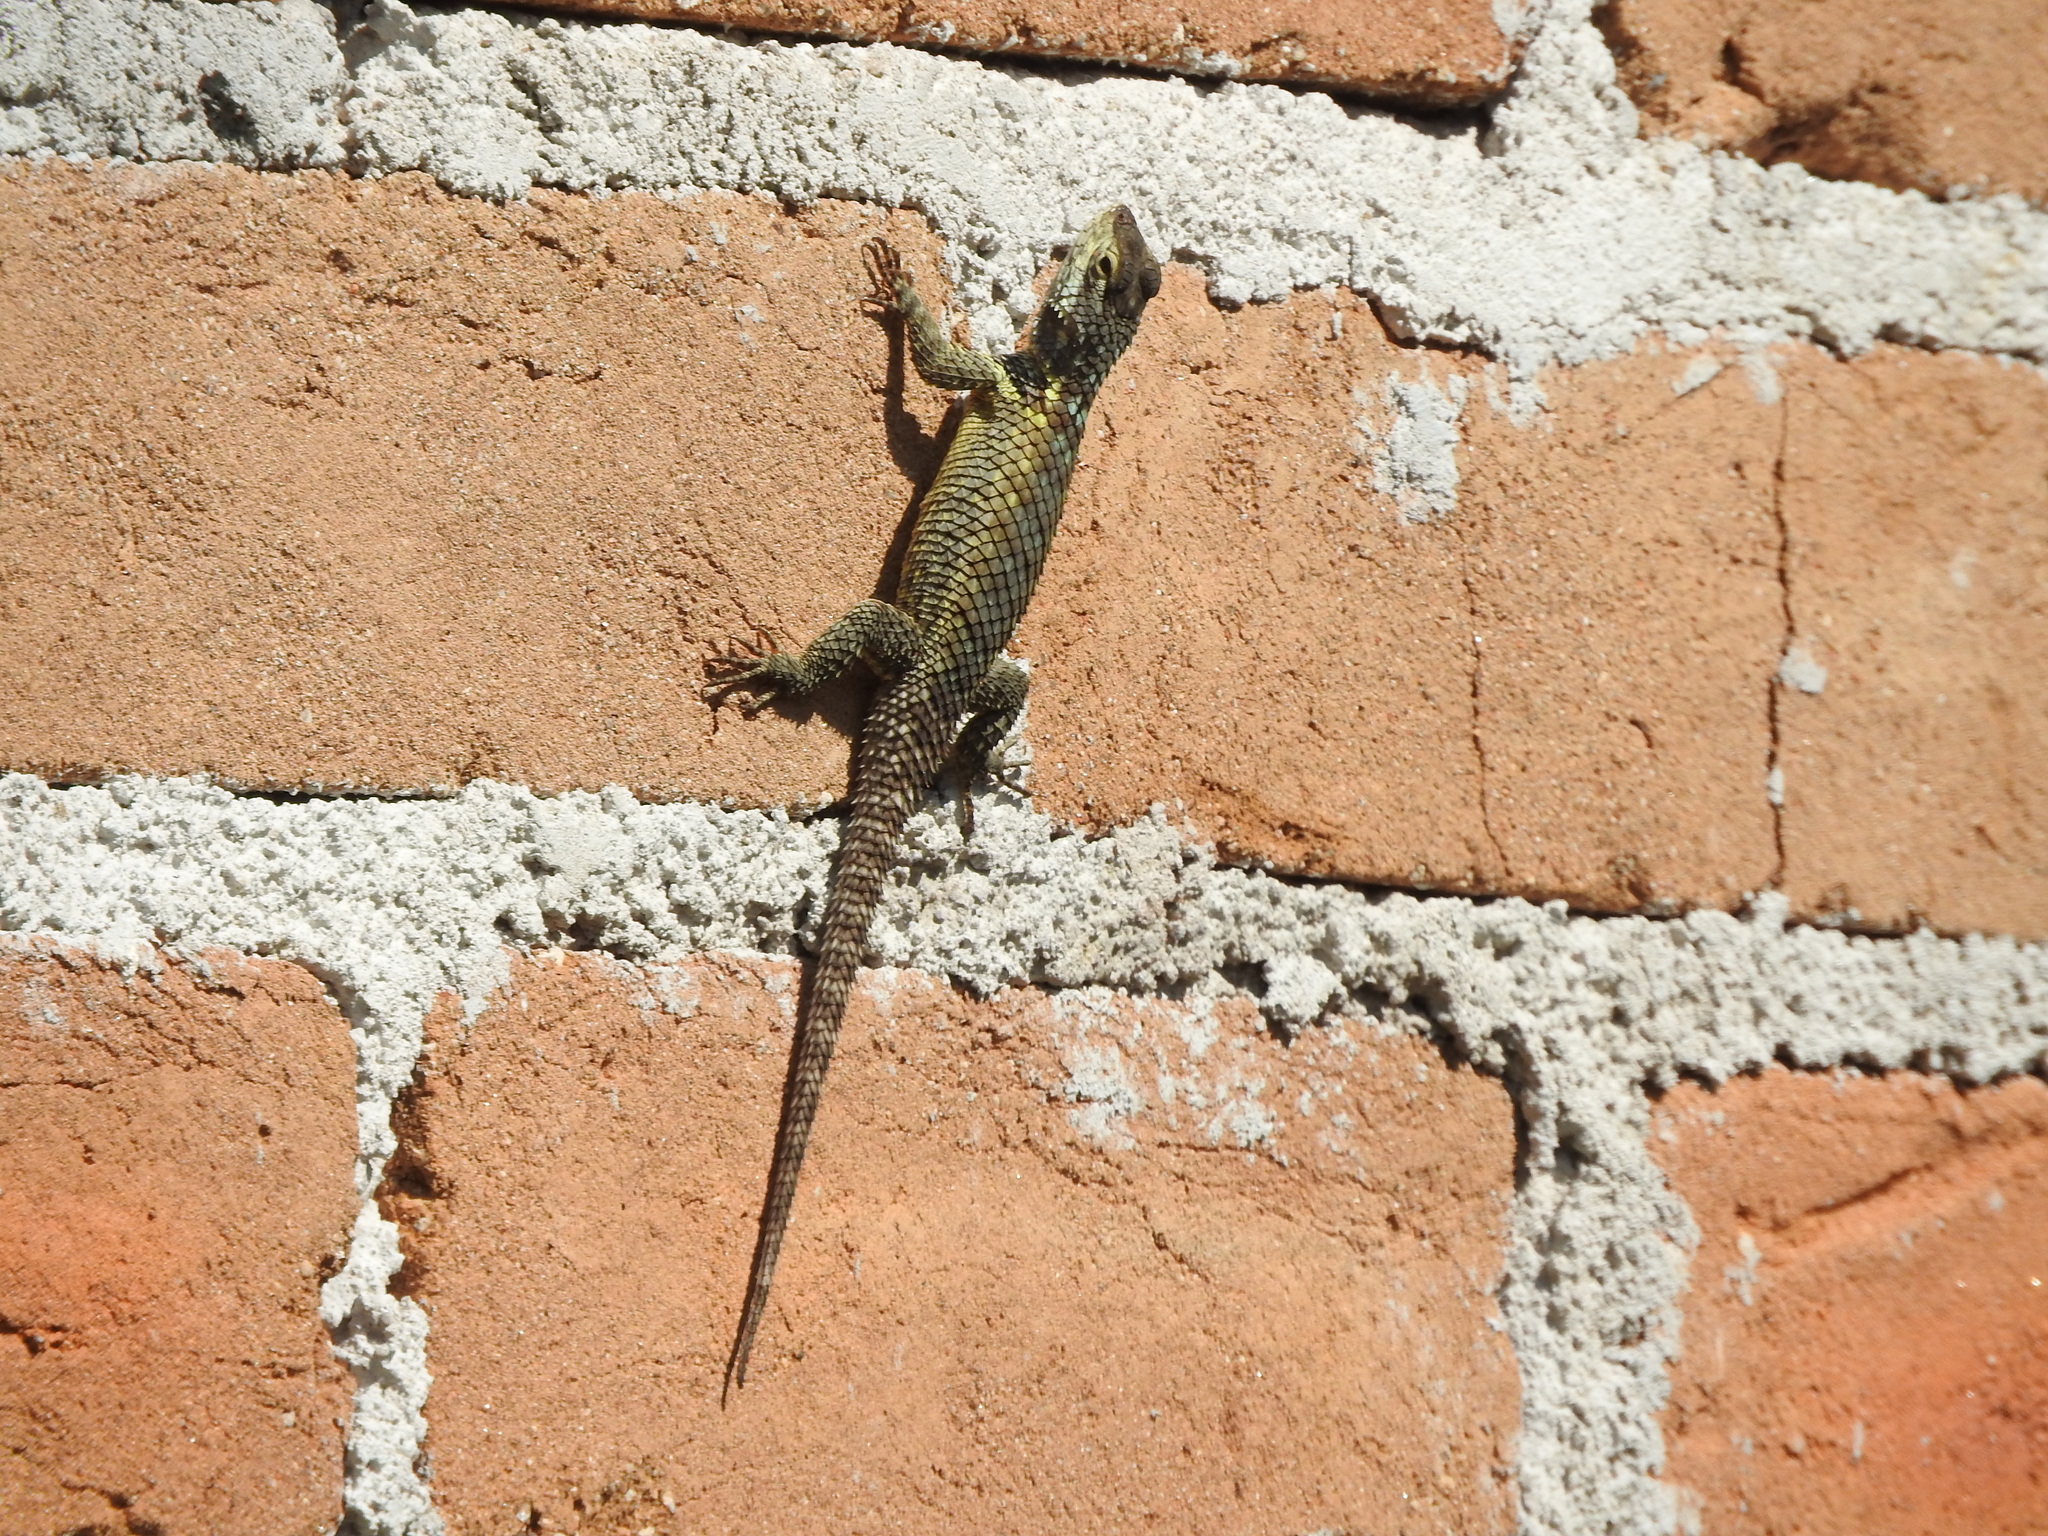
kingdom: Animalia
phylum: Chordata
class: Squamata
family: Phrynosomatidae
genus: Sceloporus
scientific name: Sceloporus torquatus
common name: Central plateau torquate lizard [melanogaster]
